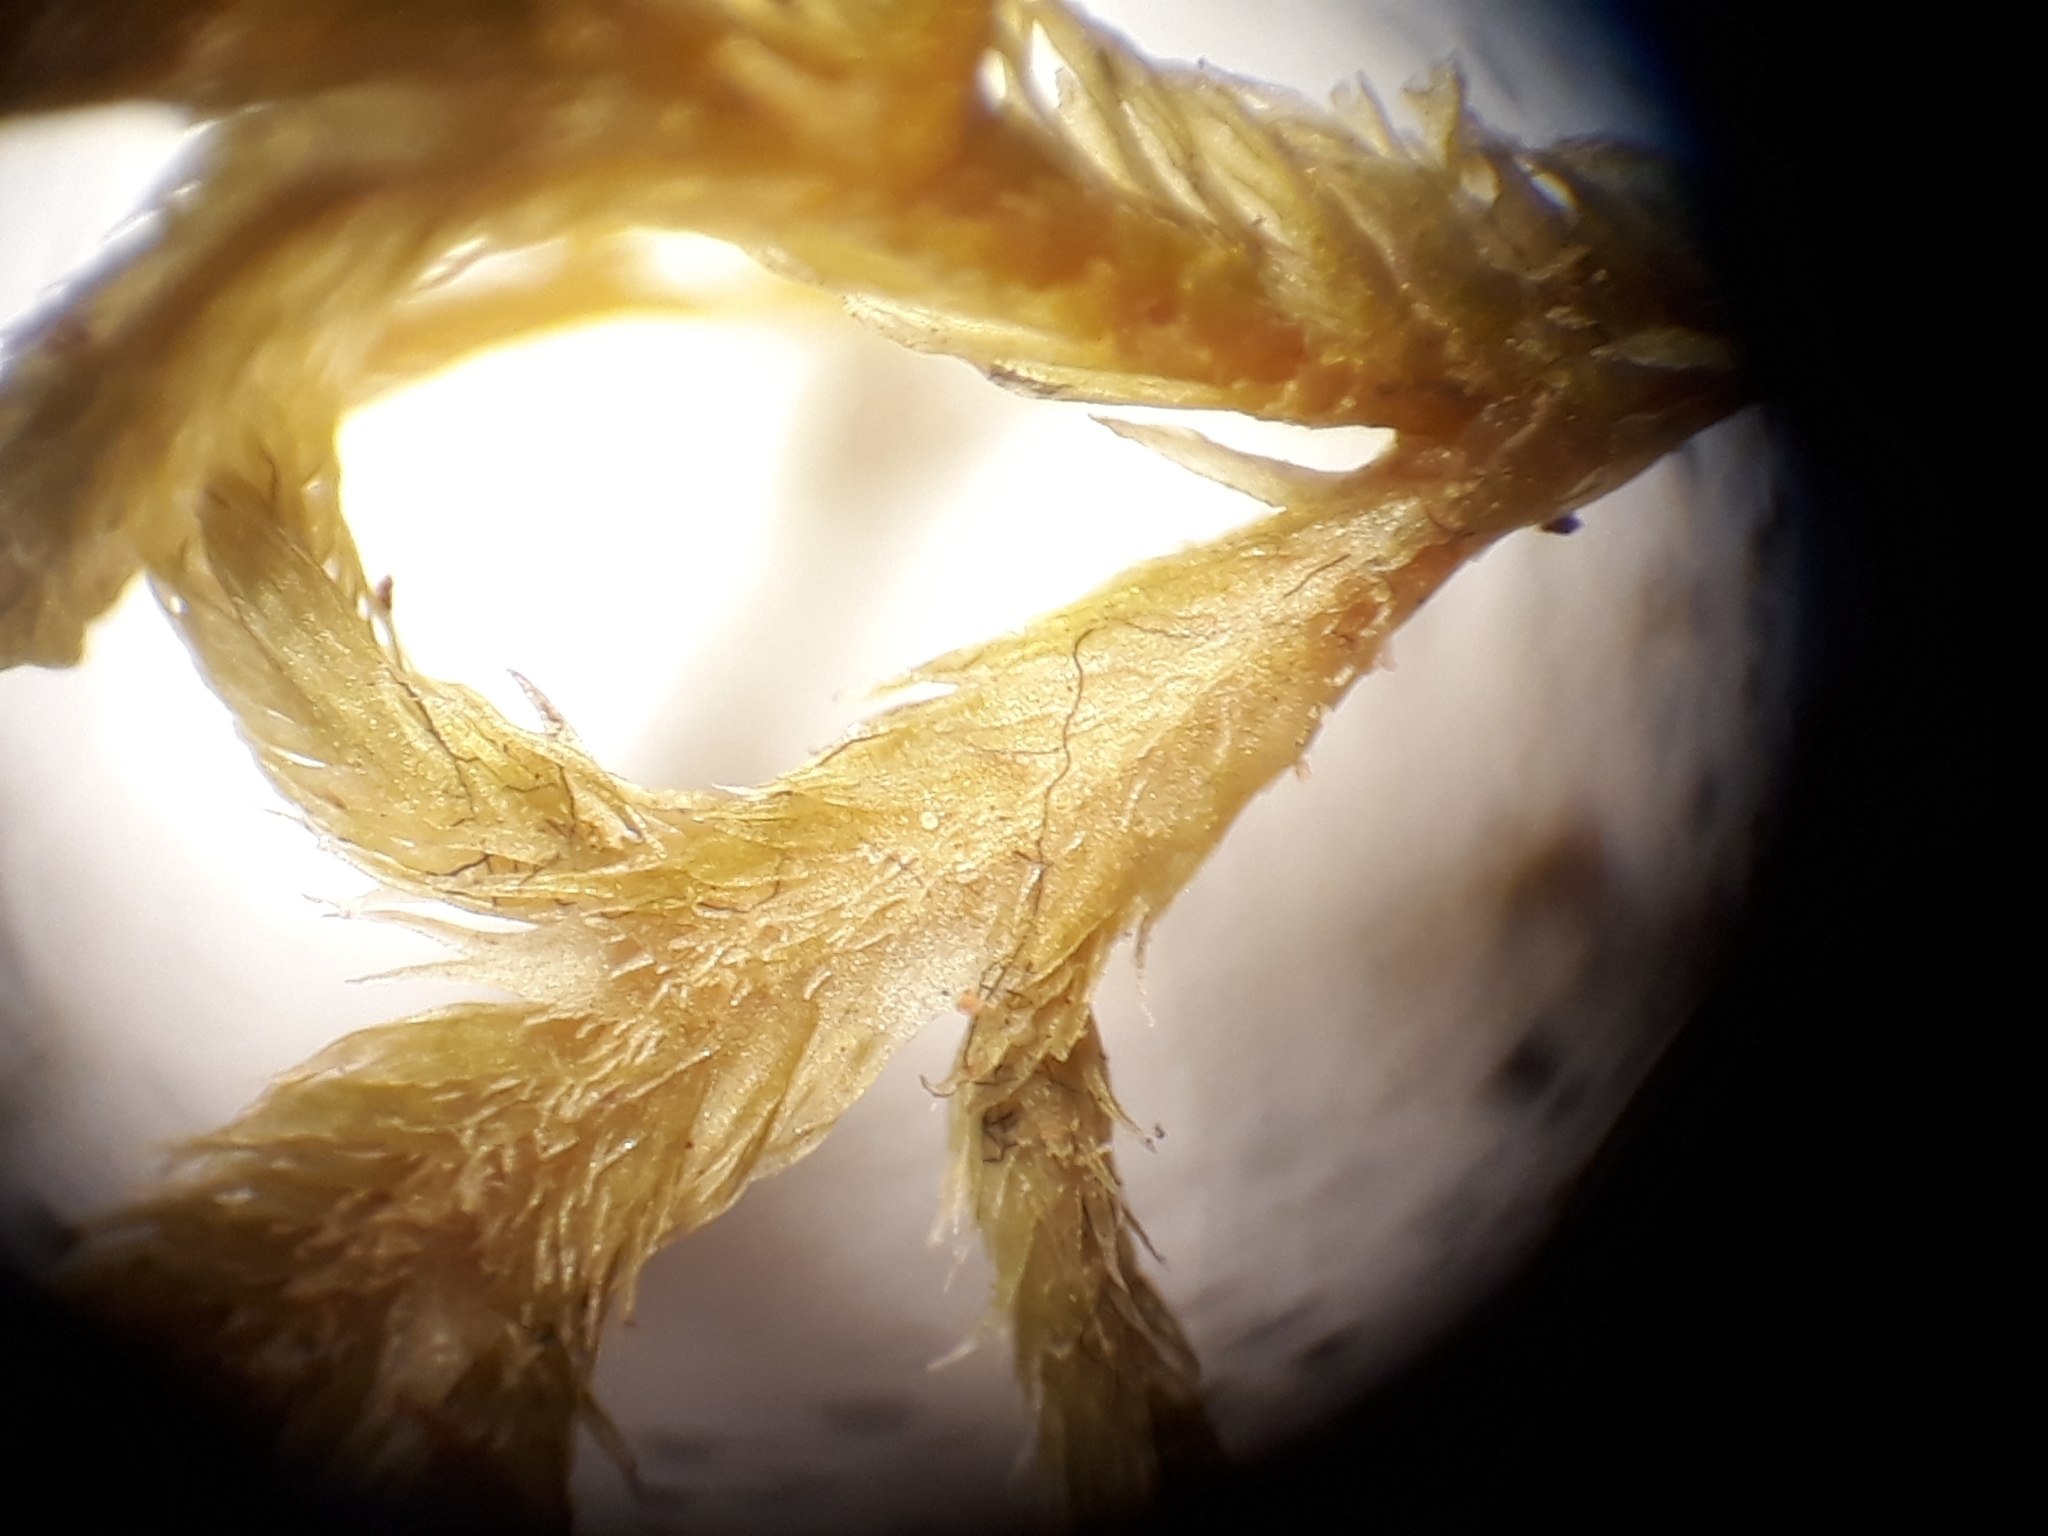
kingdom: Plantae
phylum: Marchantiophyta
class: Jungermanniopsida
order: Jungermanniales
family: Lepicoleaceae
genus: Lepicolea
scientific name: Lepicolea attenuata
